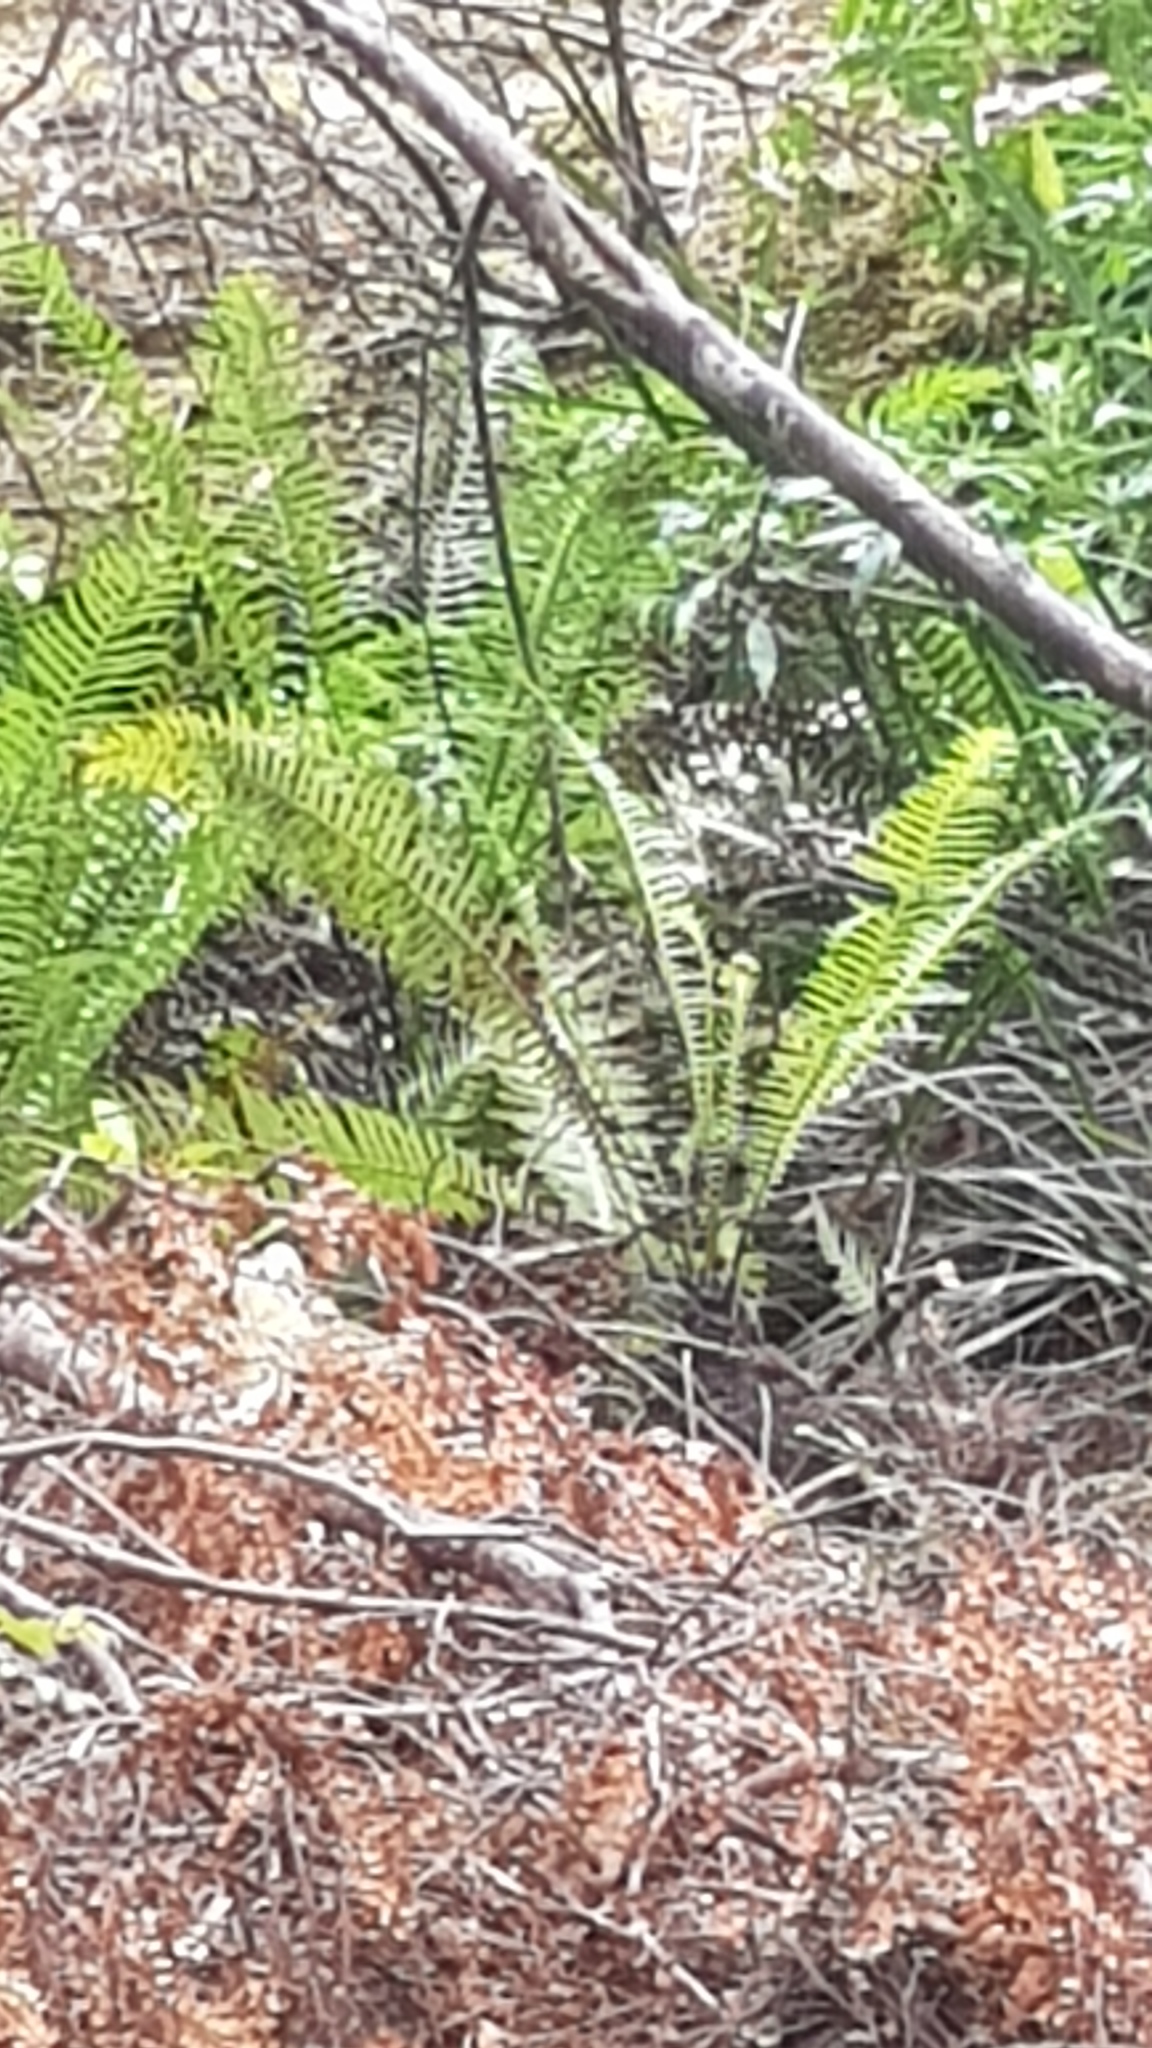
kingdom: Plantae
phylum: Tracheophyta
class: Polypodiopsida
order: Polypodiales
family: Blechnaceae
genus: Lomaria
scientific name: Lomaria nuda
